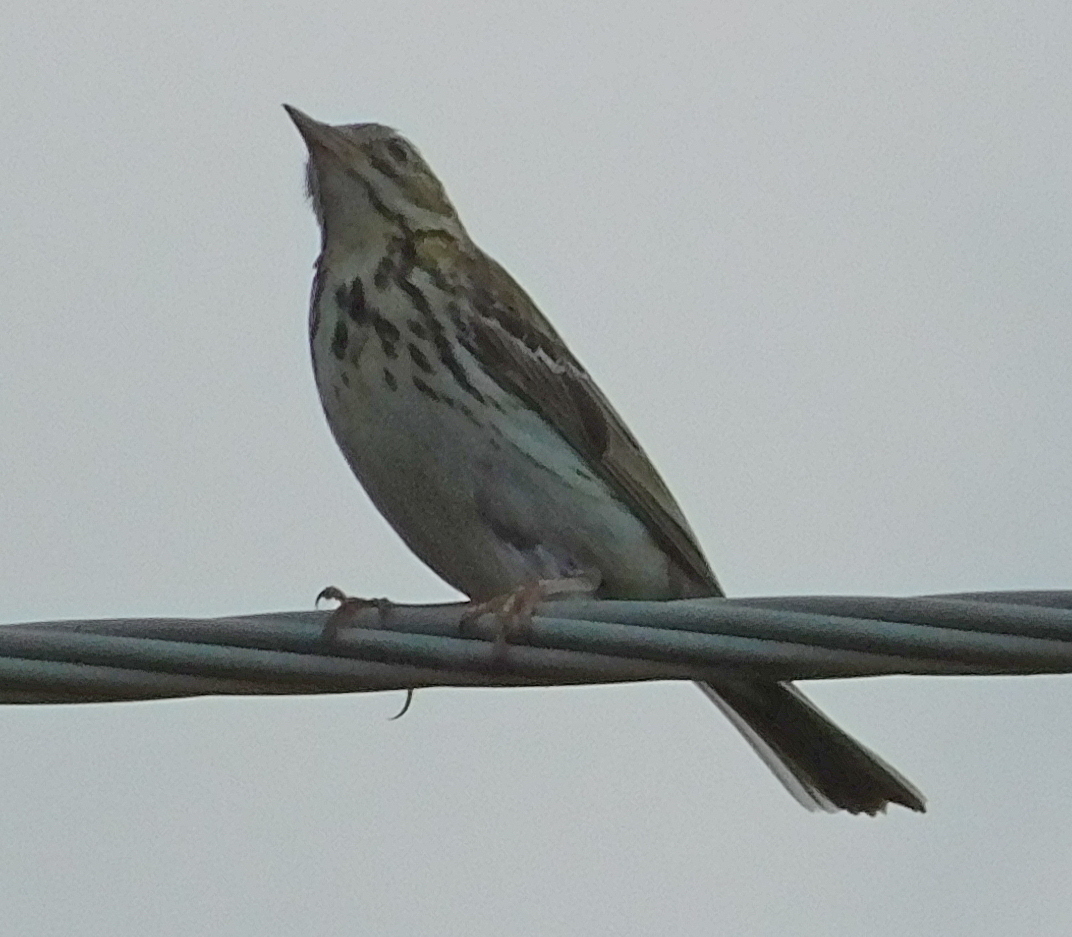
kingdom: Animalia
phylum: Chordata
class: Aves
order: Passeriformes
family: Motacillidae
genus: Anthus
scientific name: Anthus trivialis
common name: Tree pipit
